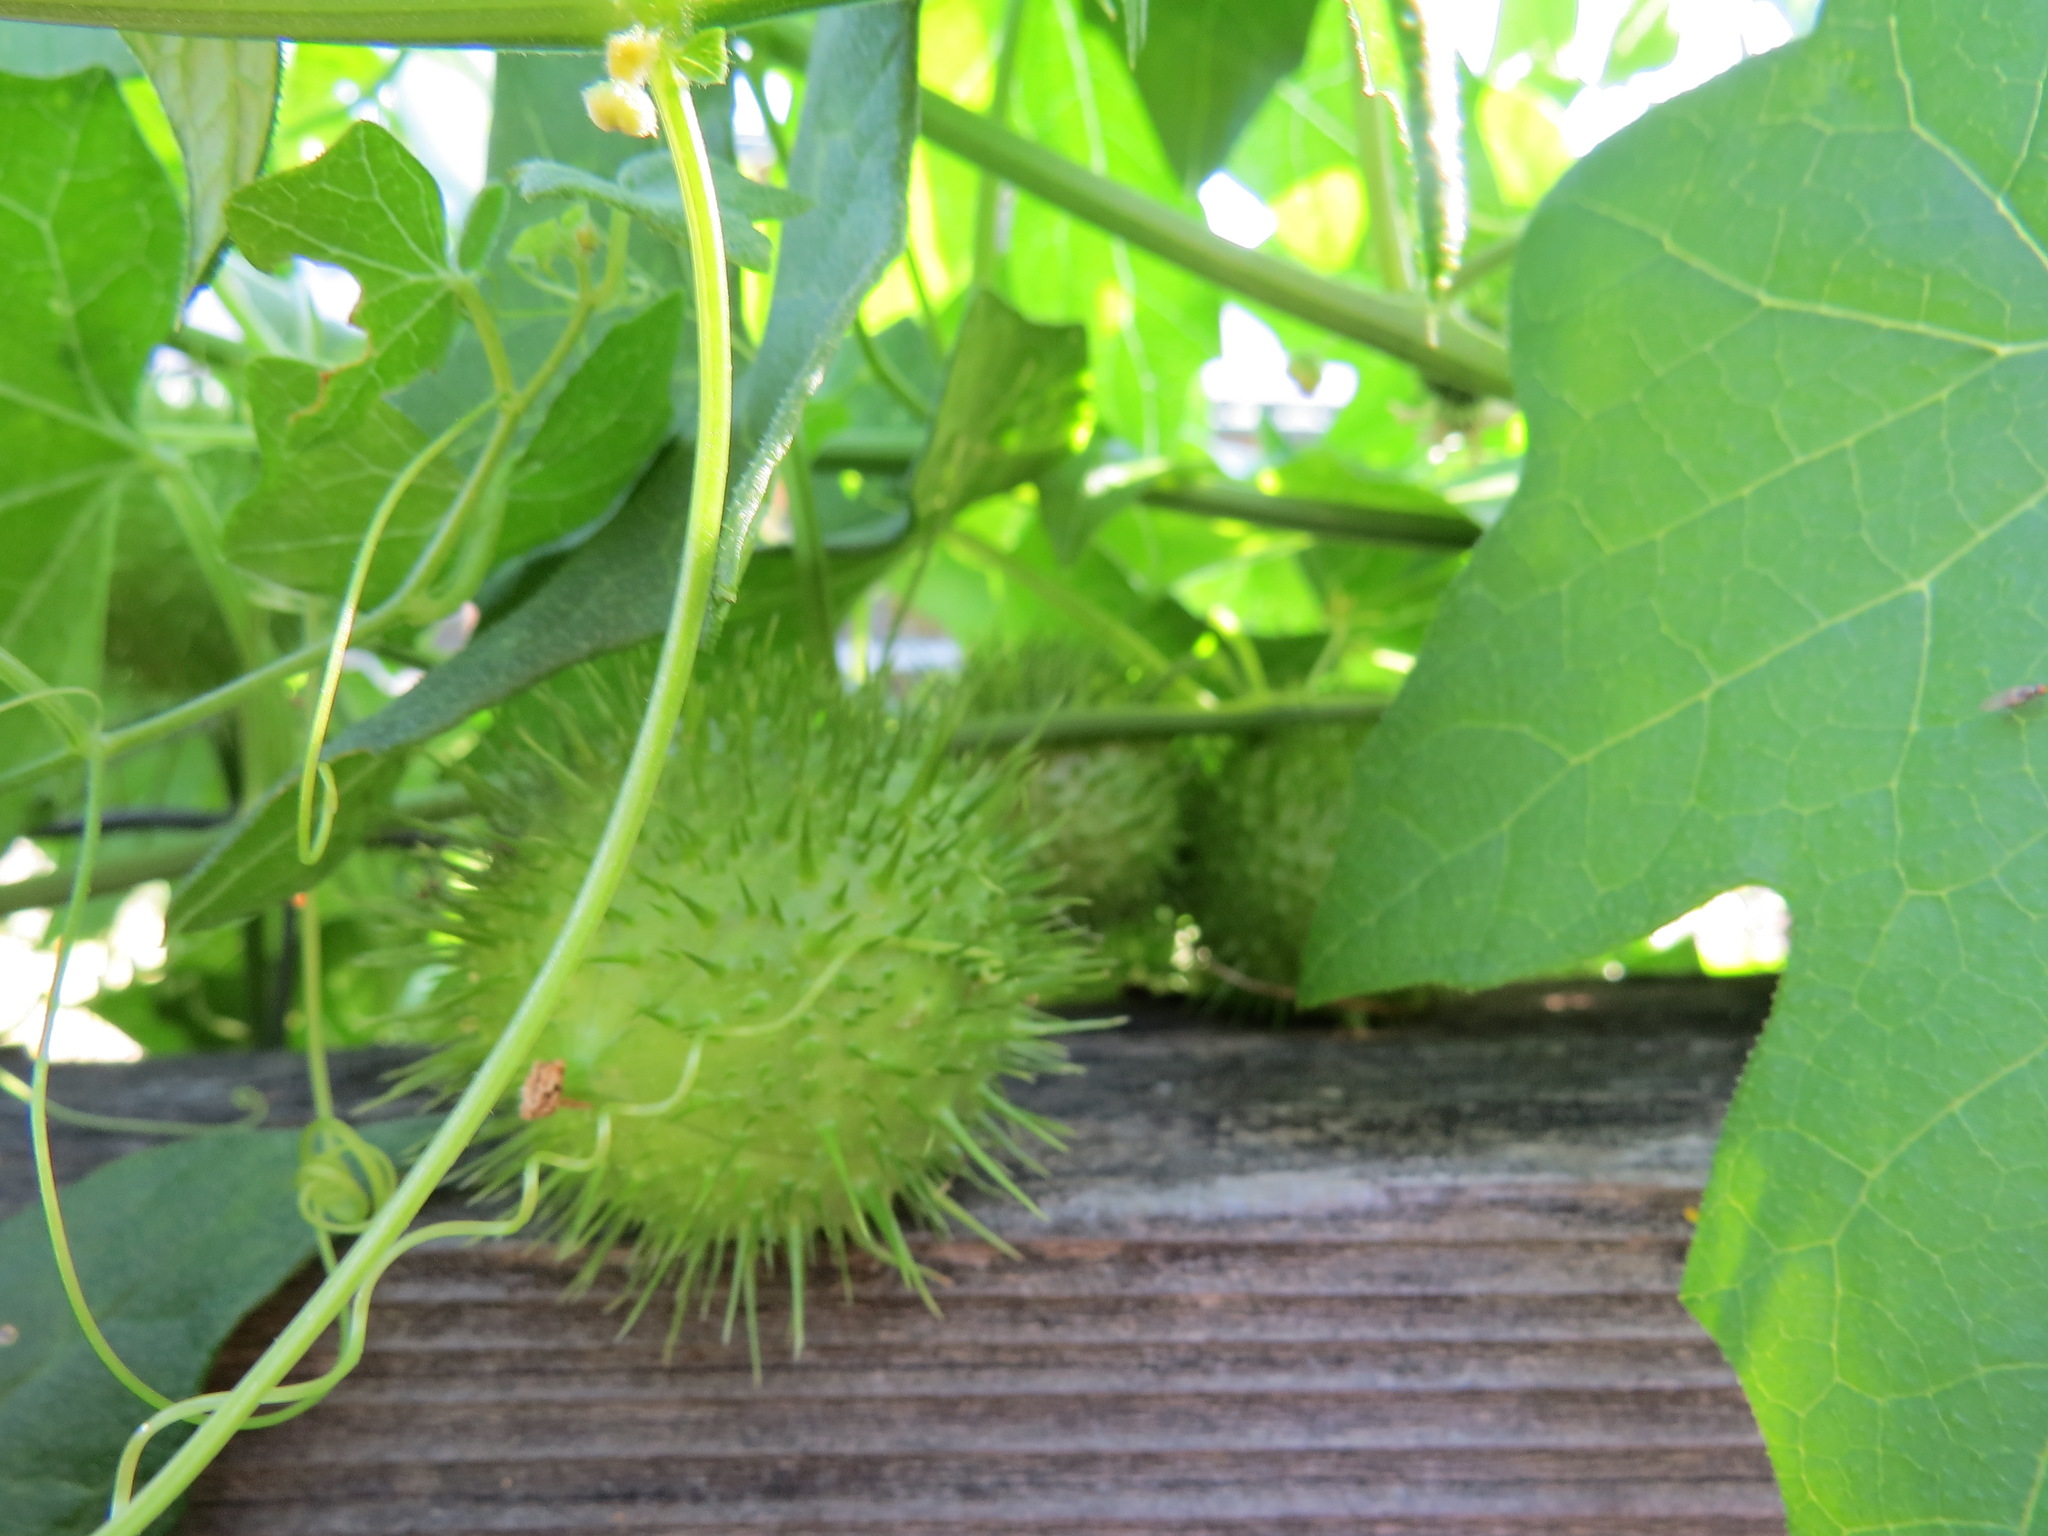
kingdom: Plantae
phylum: Tracheophyta
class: Magnoliopsida
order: Cucurbitales
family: Cucurbitaceae
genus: Marah
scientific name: Marah fabacea
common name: California manroot
